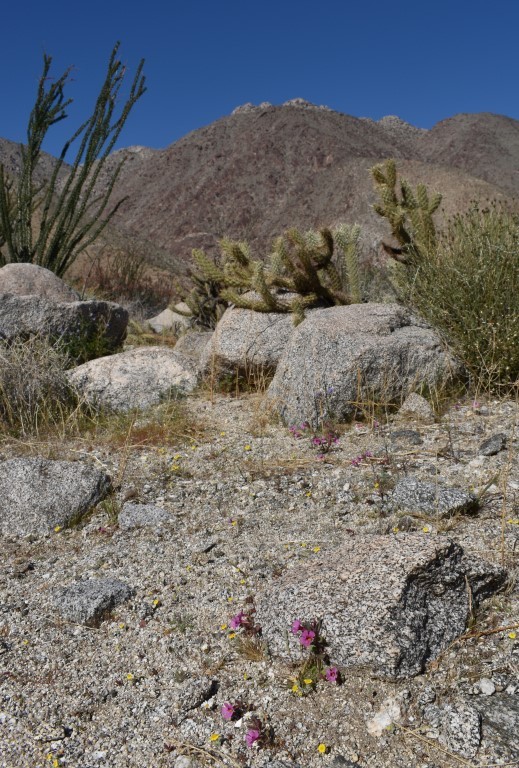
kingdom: Plantae
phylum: Tracheophyta
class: Magnoliopsida
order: Lamiales
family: Phrymaceae
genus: Diplacus
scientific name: Diplacus bigelovii
